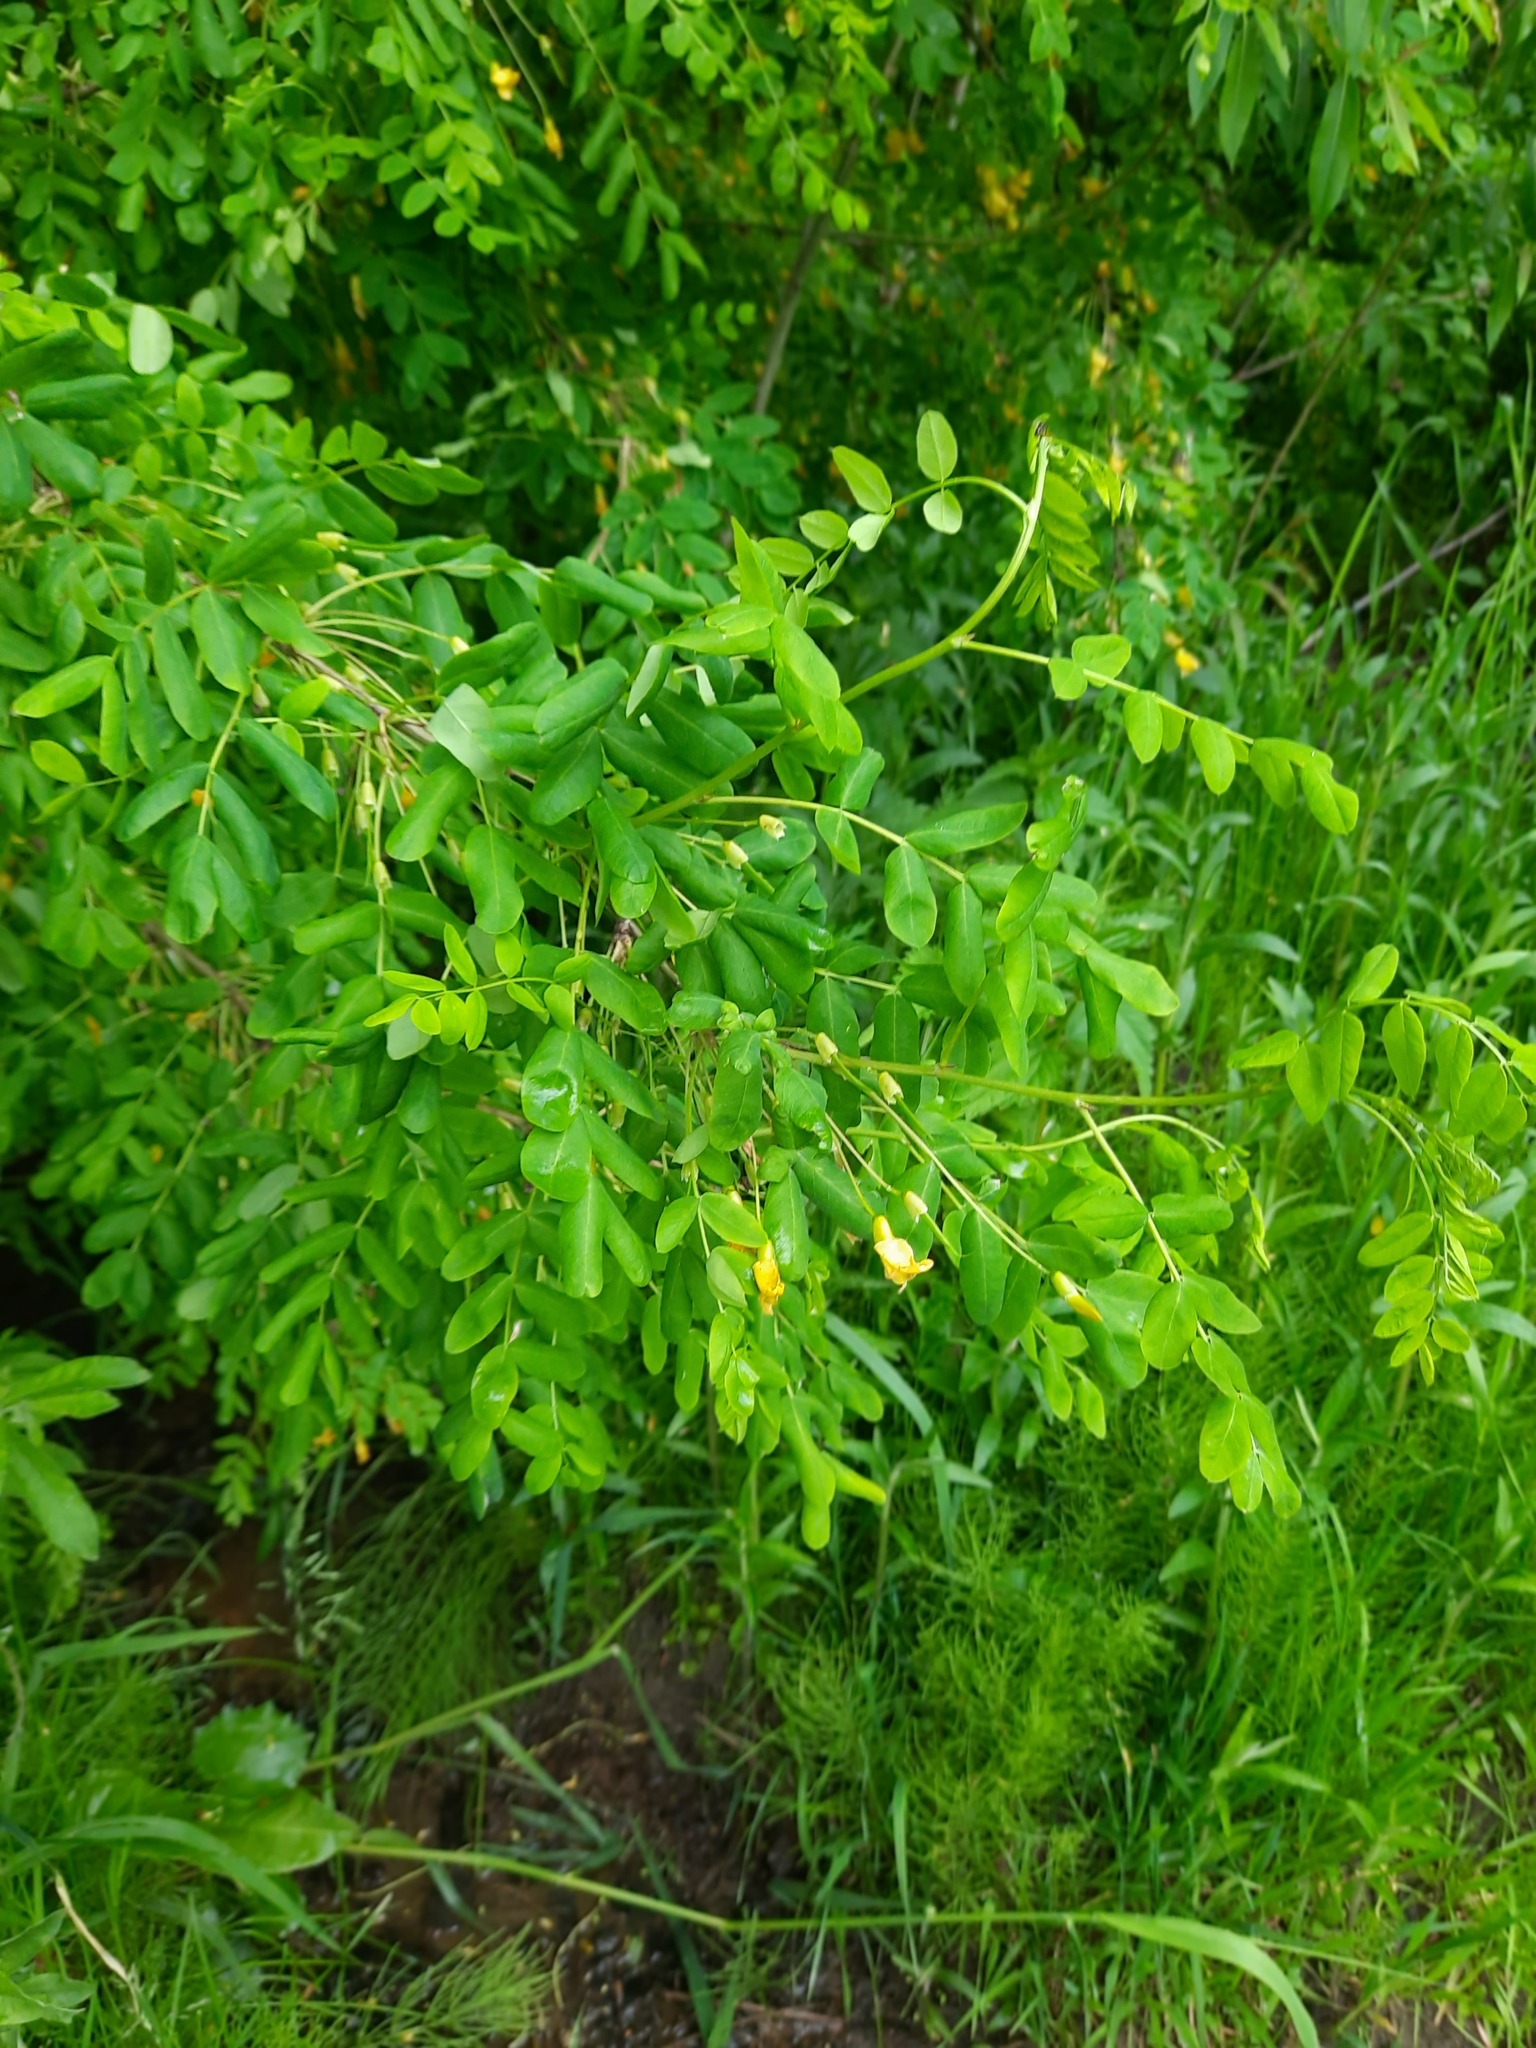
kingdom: Plantae
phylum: Tracheophyta
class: Magnoliopsida
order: Fabales
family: Fabaceae
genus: Caragana
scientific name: Caragana arborescens
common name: Siberian peashrub
